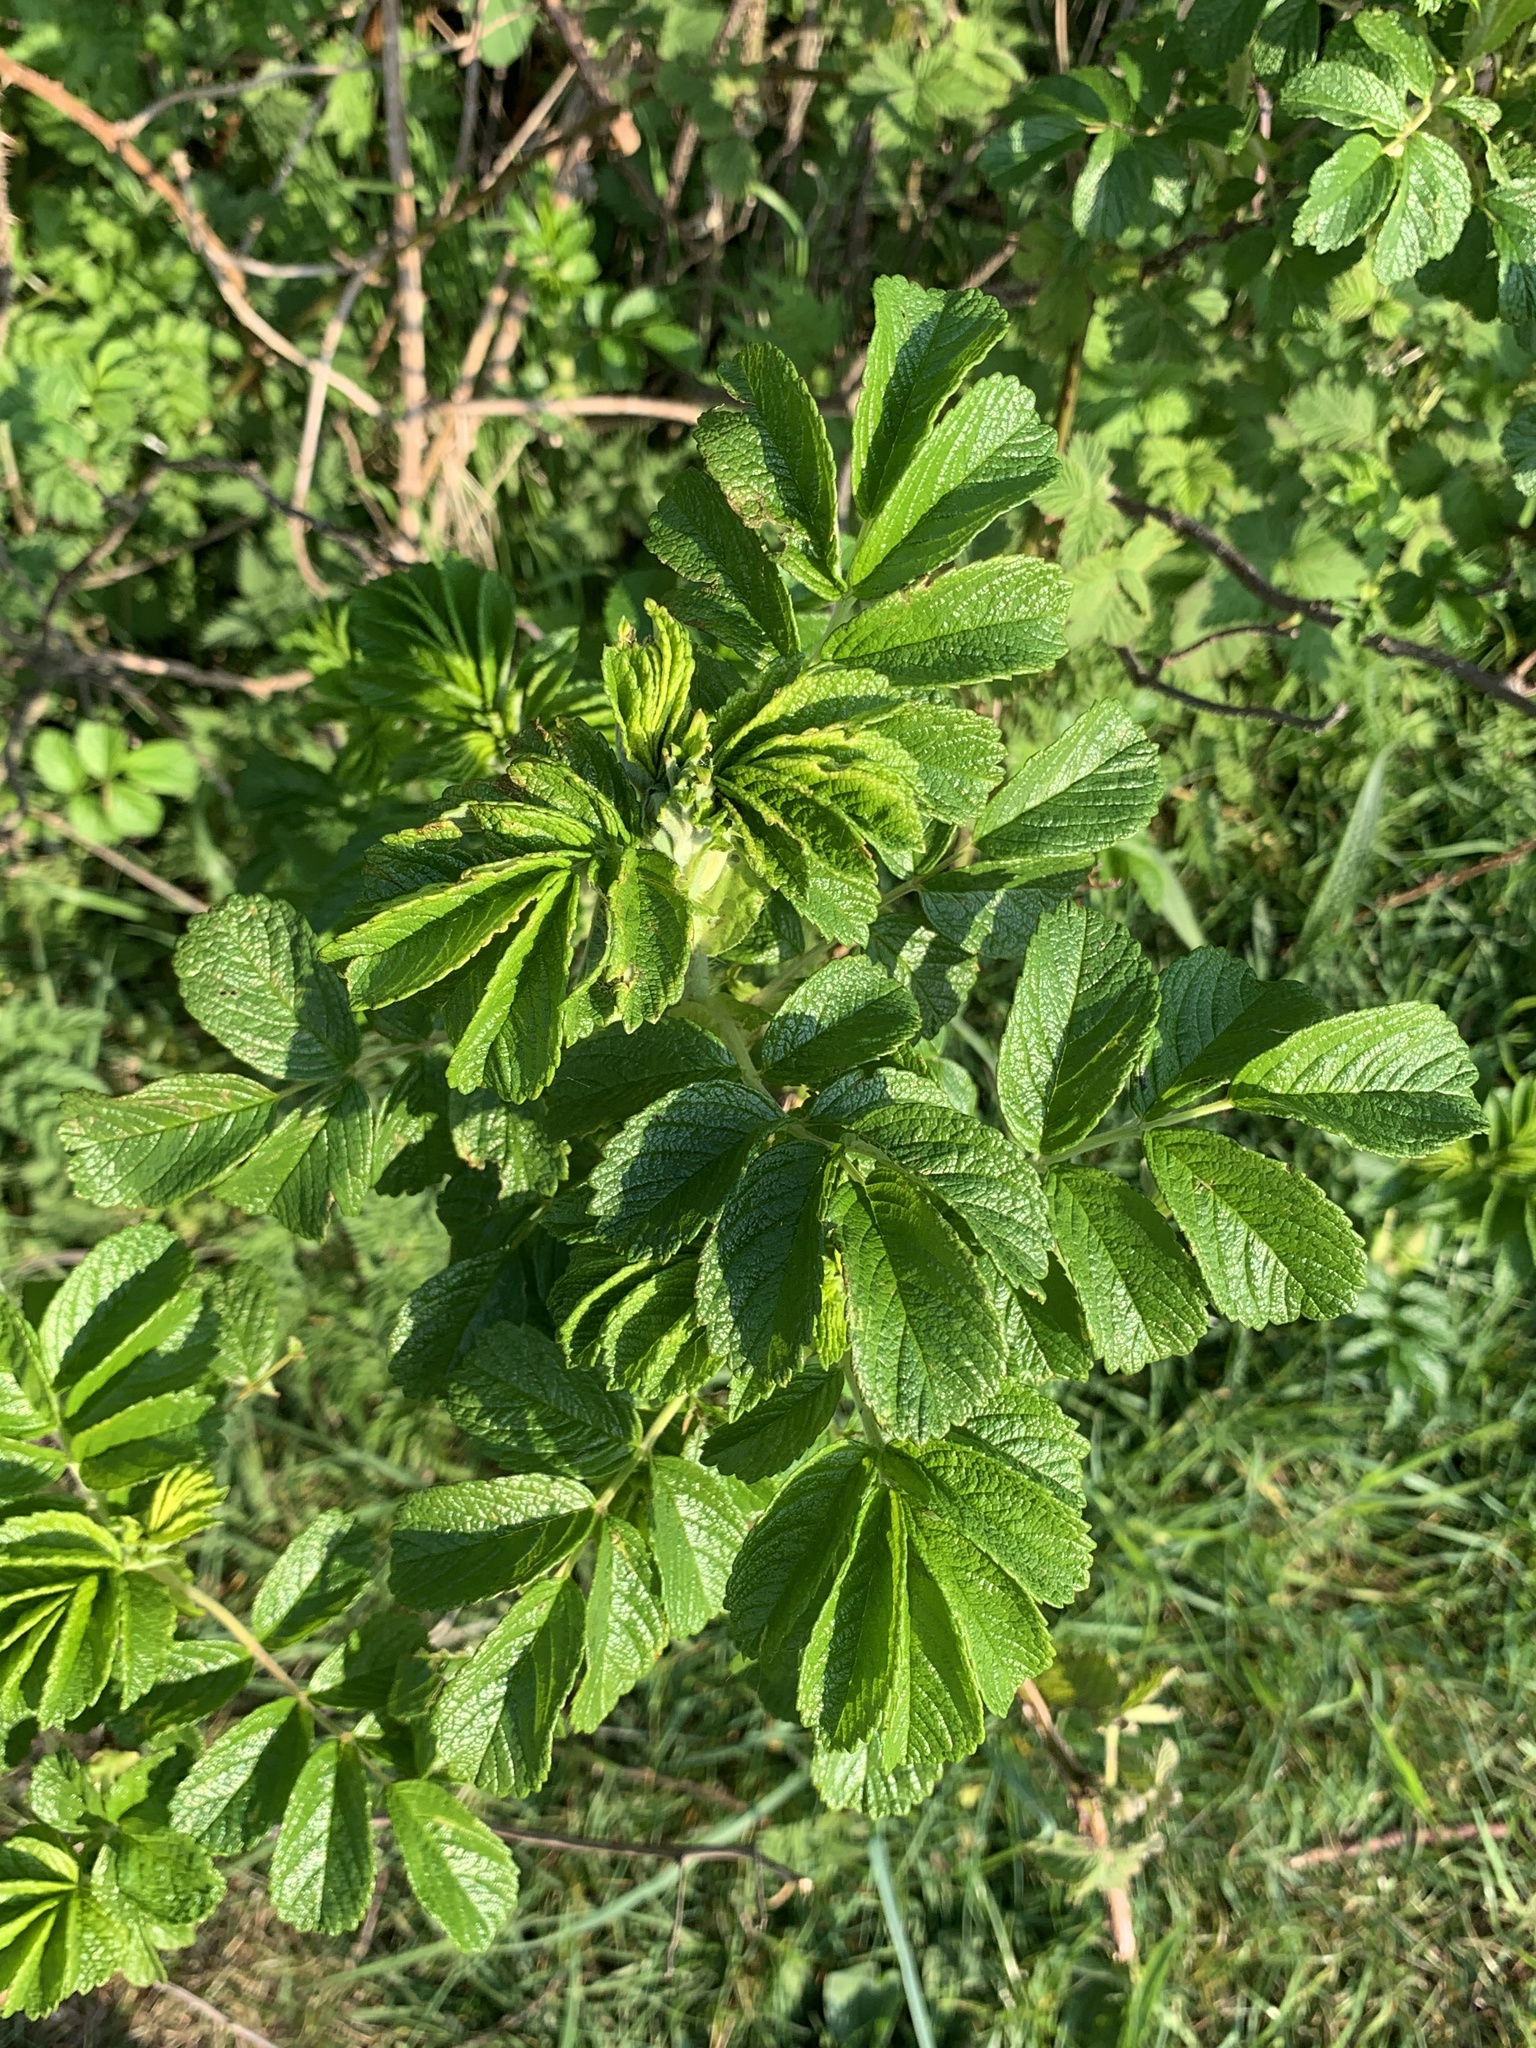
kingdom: Plantae
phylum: Tracheophyta
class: Magnoliopsida
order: Rosales
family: Rosaceae
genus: Rosa
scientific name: Rosa rugosa
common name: Japanese rose
